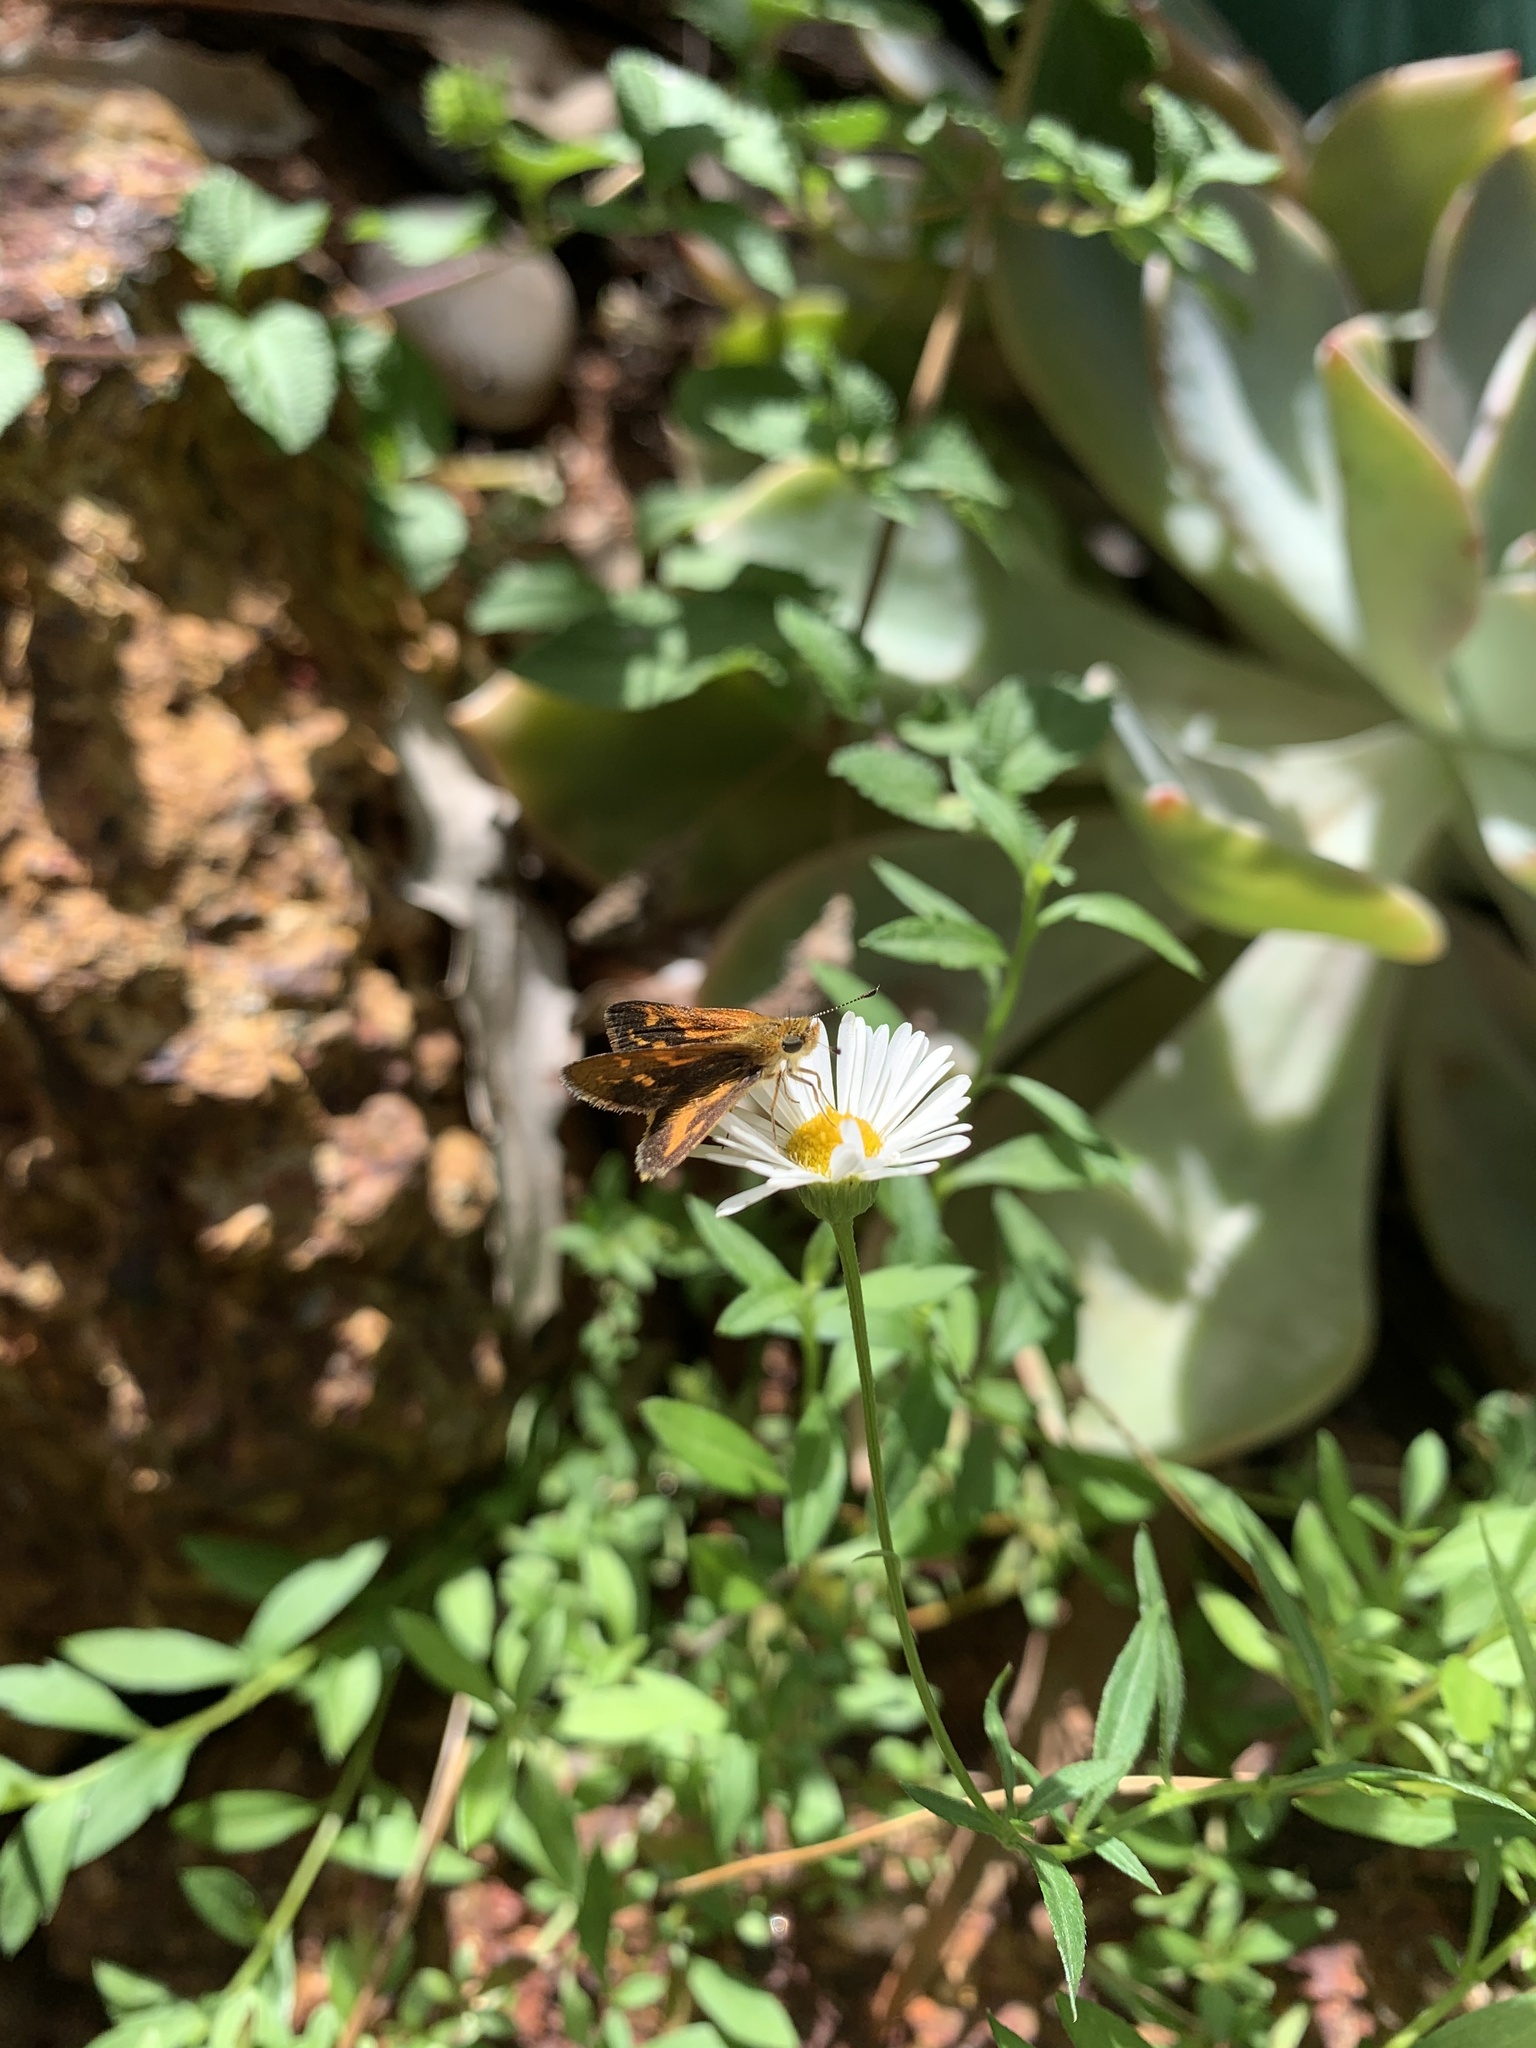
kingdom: Animalia
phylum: Arthropoda
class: Insecta
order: Lepidoptera
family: Hesperiidae
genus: Taractrocera
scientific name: Taractrocera papyria
